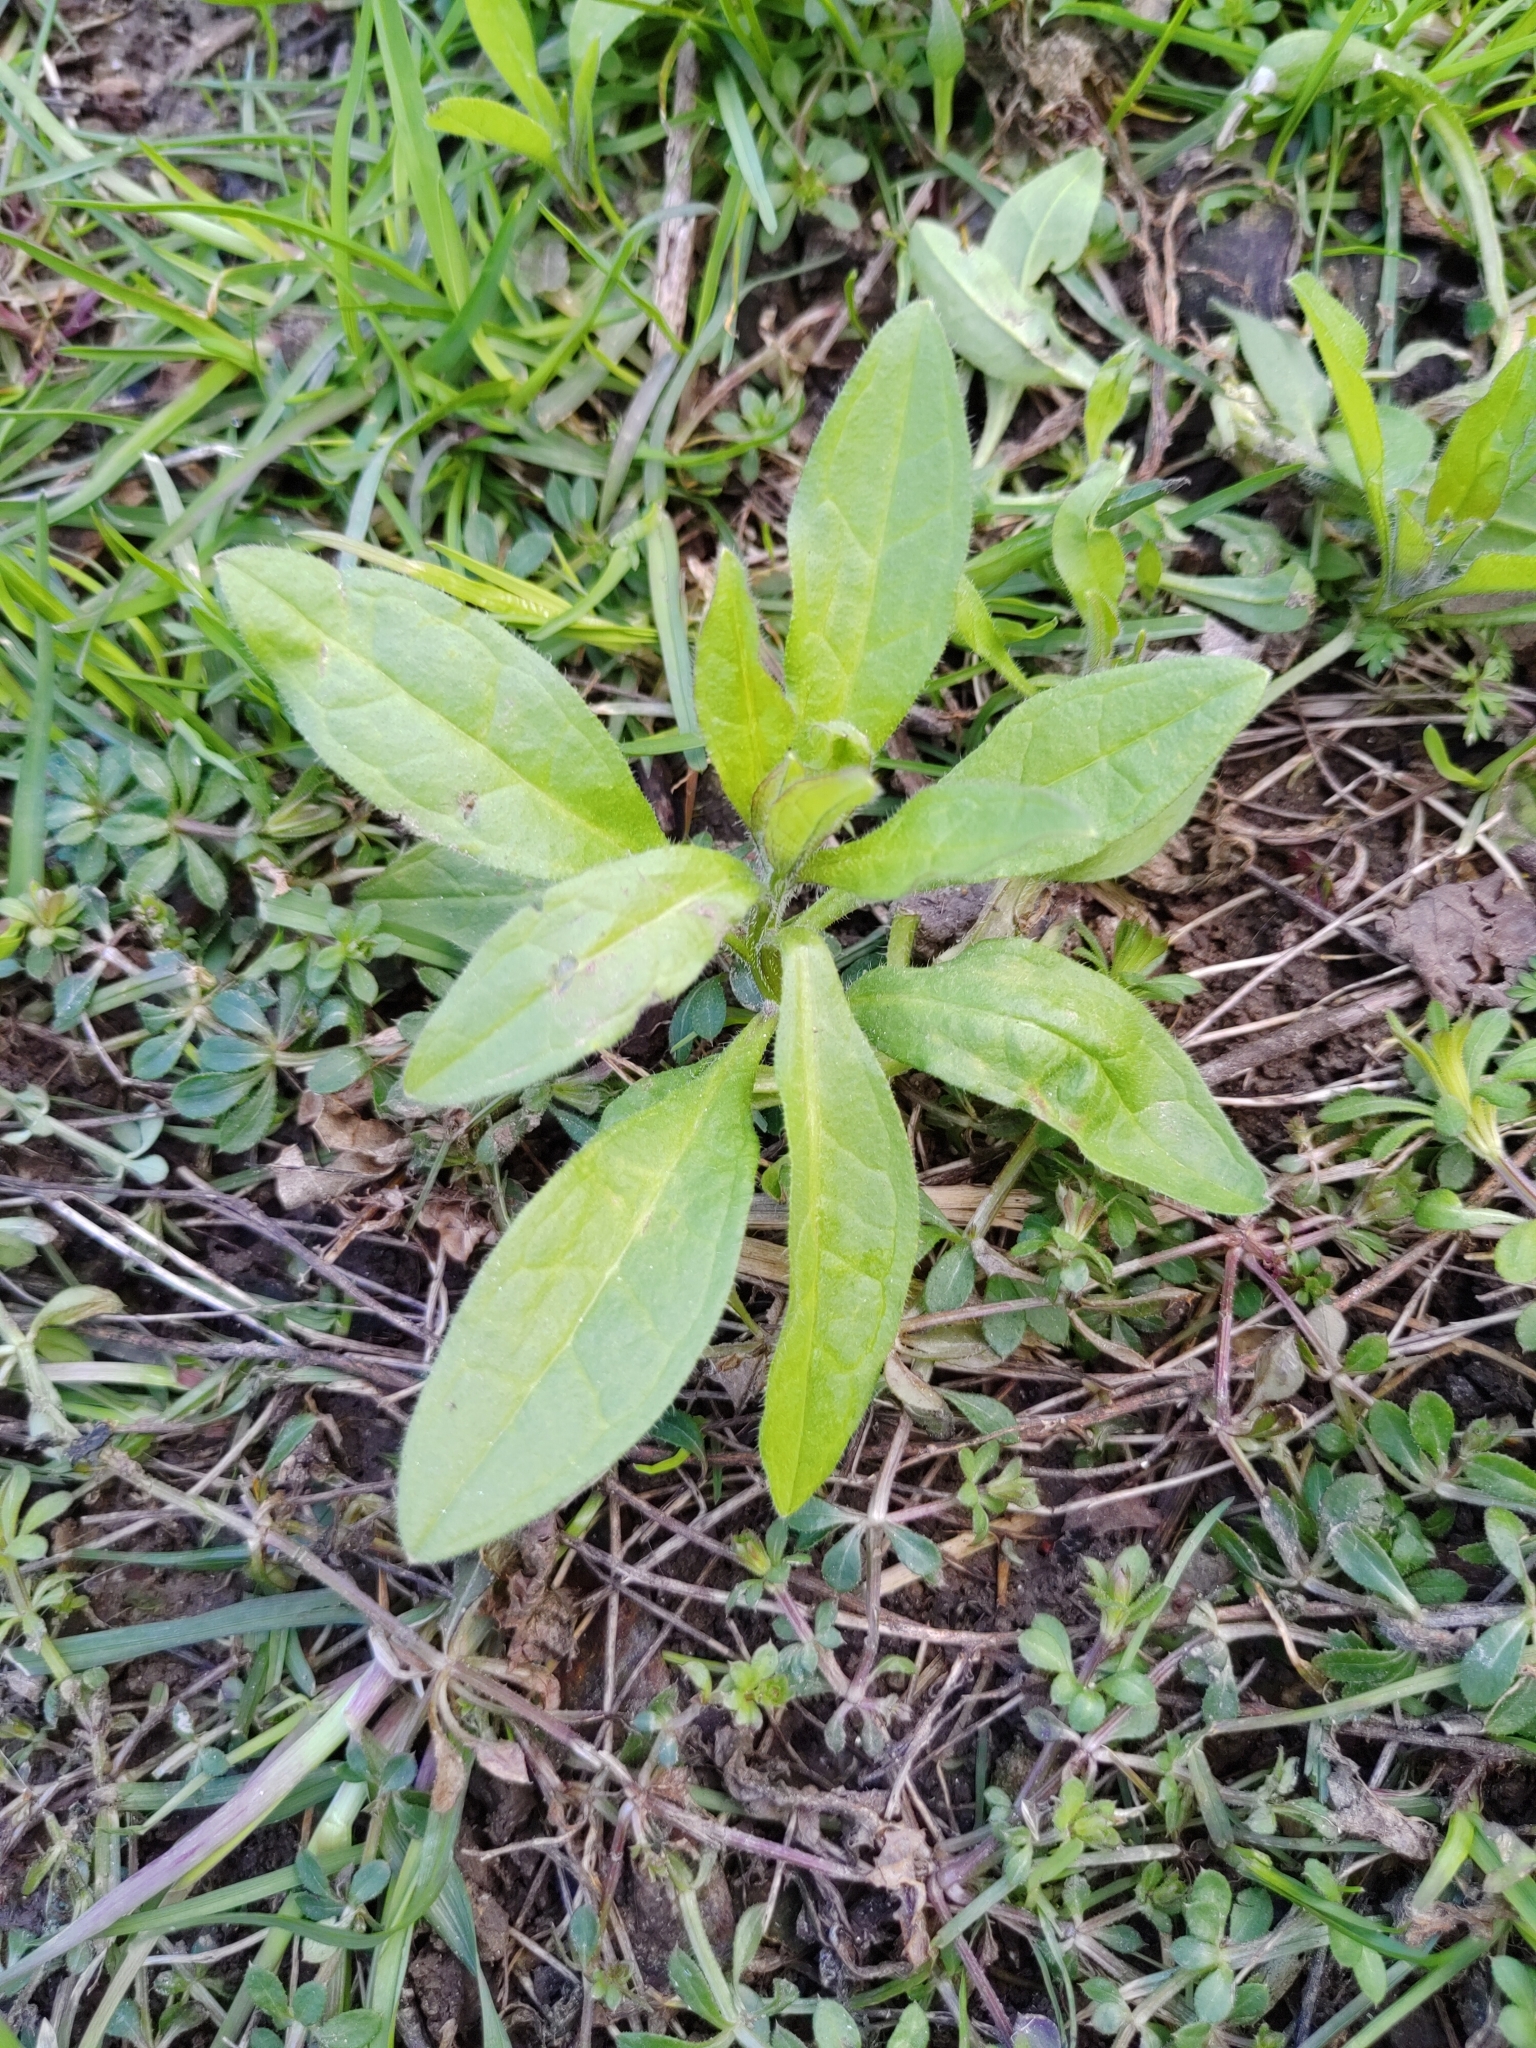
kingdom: Plantae
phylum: Tracheophyta
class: Magnoliopsida
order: Boraginales
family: Boraginaceae
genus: Asperugo
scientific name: Asperugo procumbens
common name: Madwort
